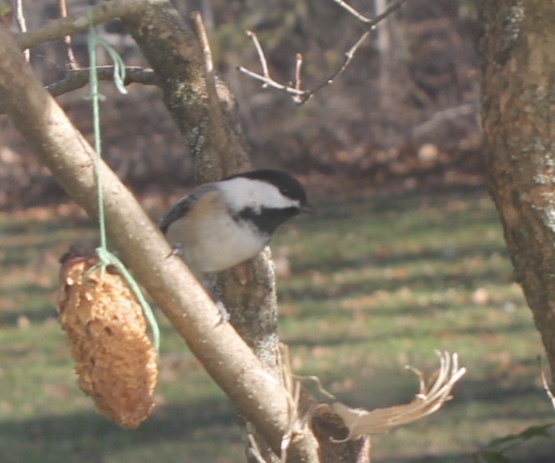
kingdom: Animalia
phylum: Chordata
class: Aves
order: Passeriformes
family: Paridae
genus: Poecile
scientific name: Poecile atricapillus
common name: Black-capped chickadee
